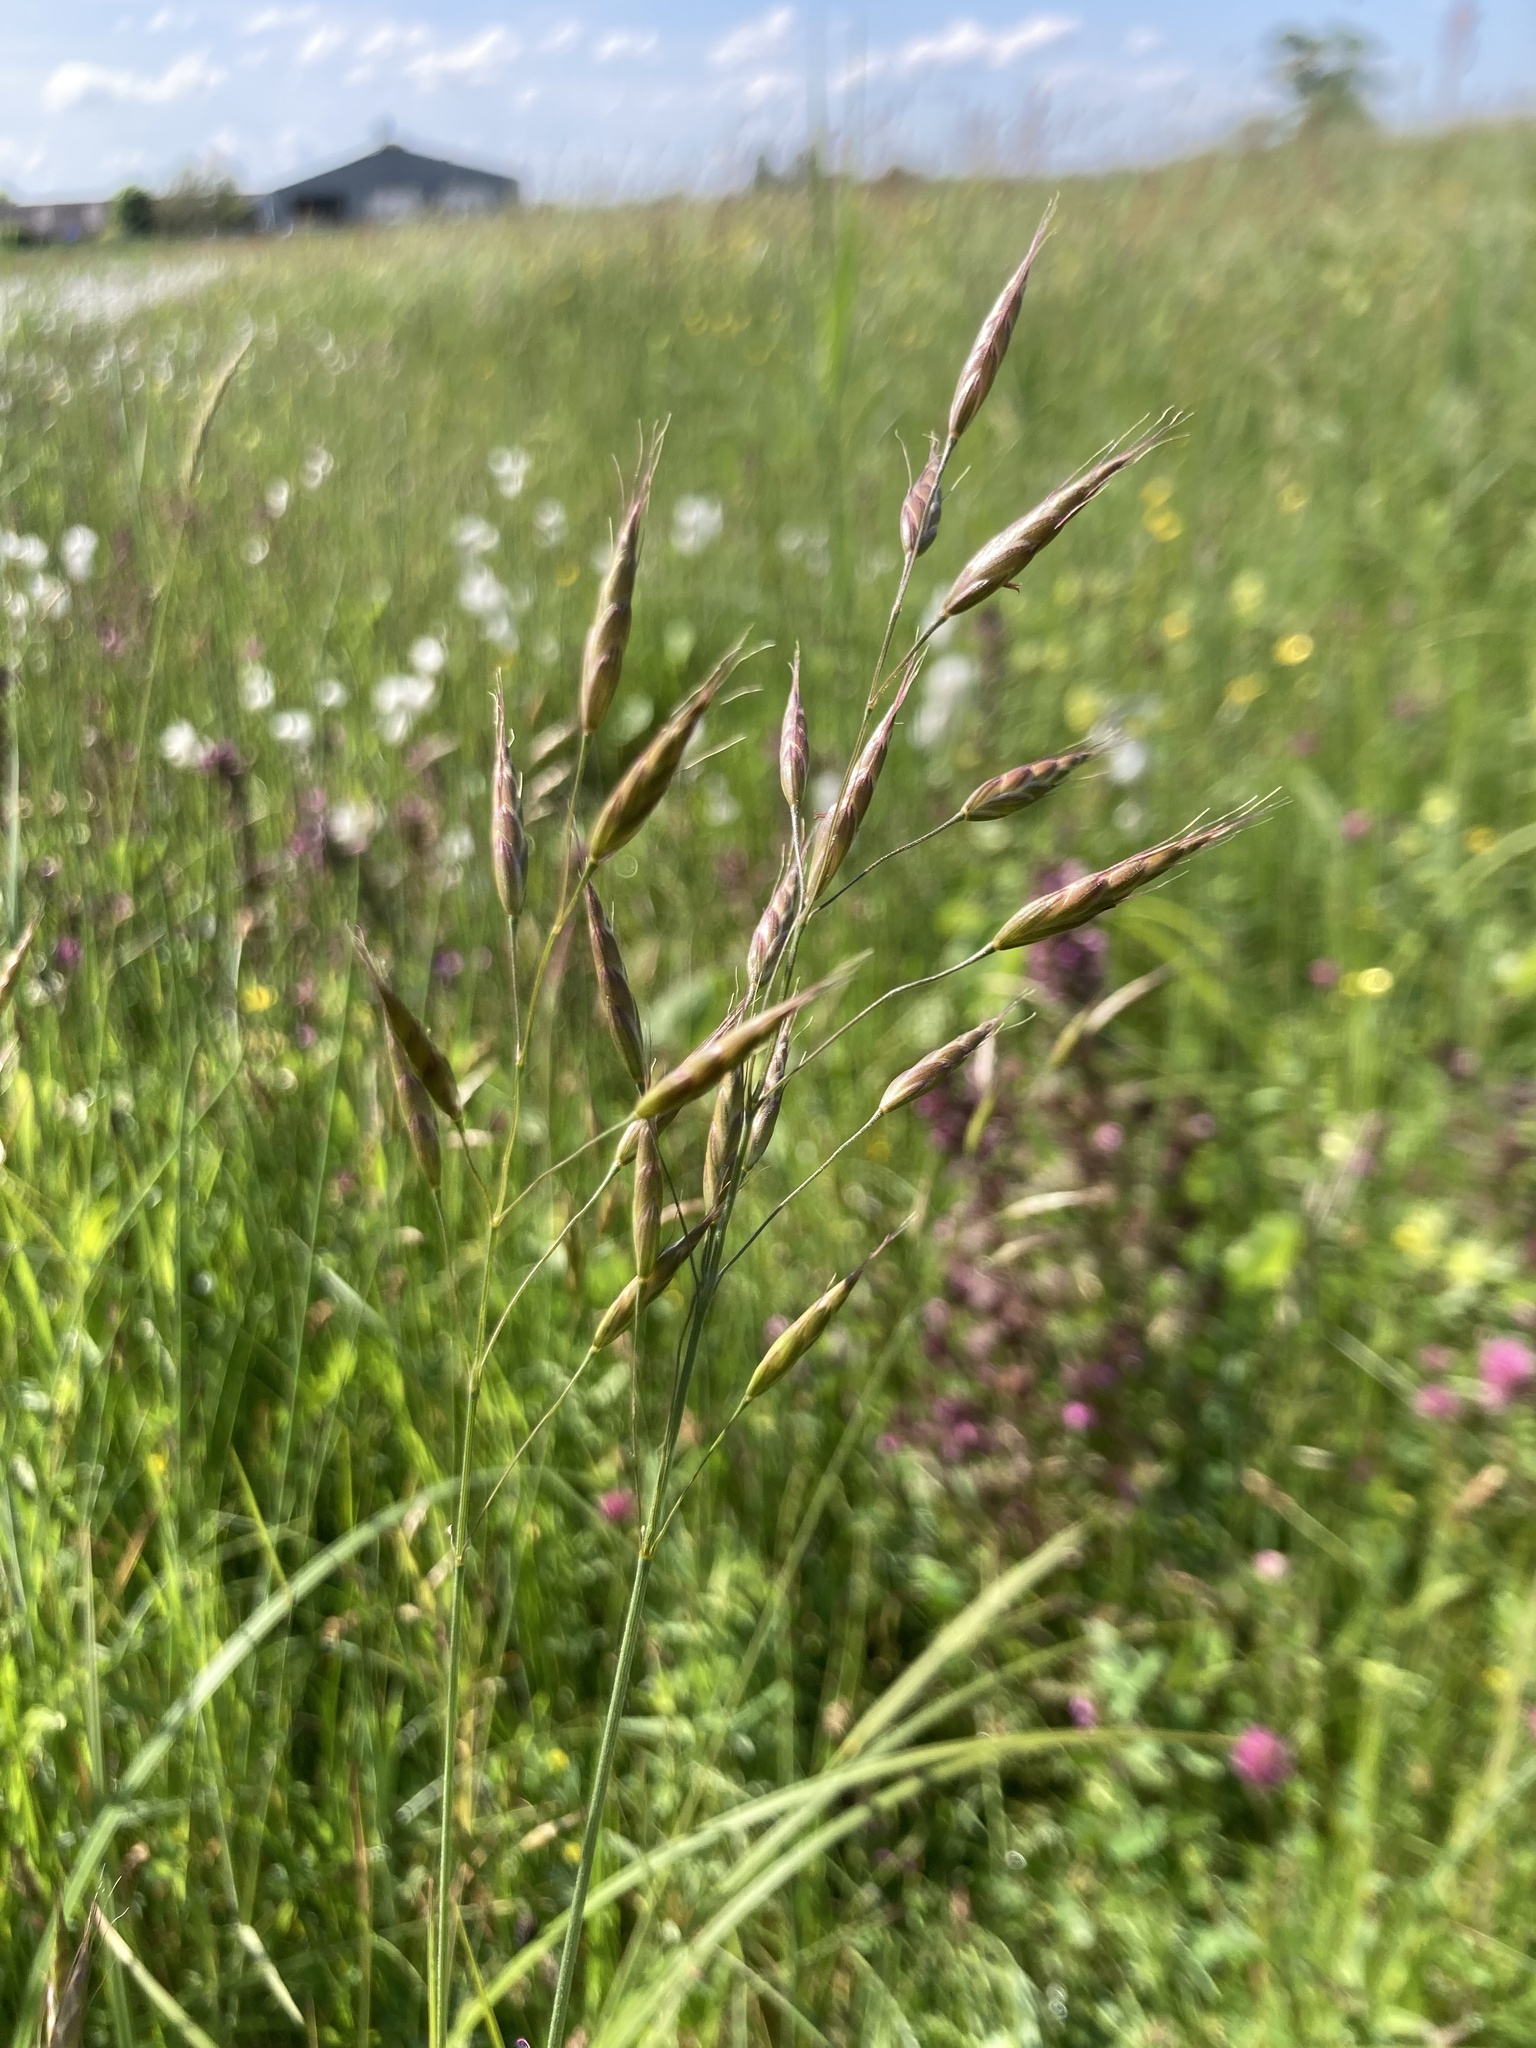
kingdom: Plantae
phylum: Tracheophyta
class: Liliopsida
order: Poales
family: Poaceae
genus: Bromus
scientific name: Bromus commutatus
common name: Meadow brome
